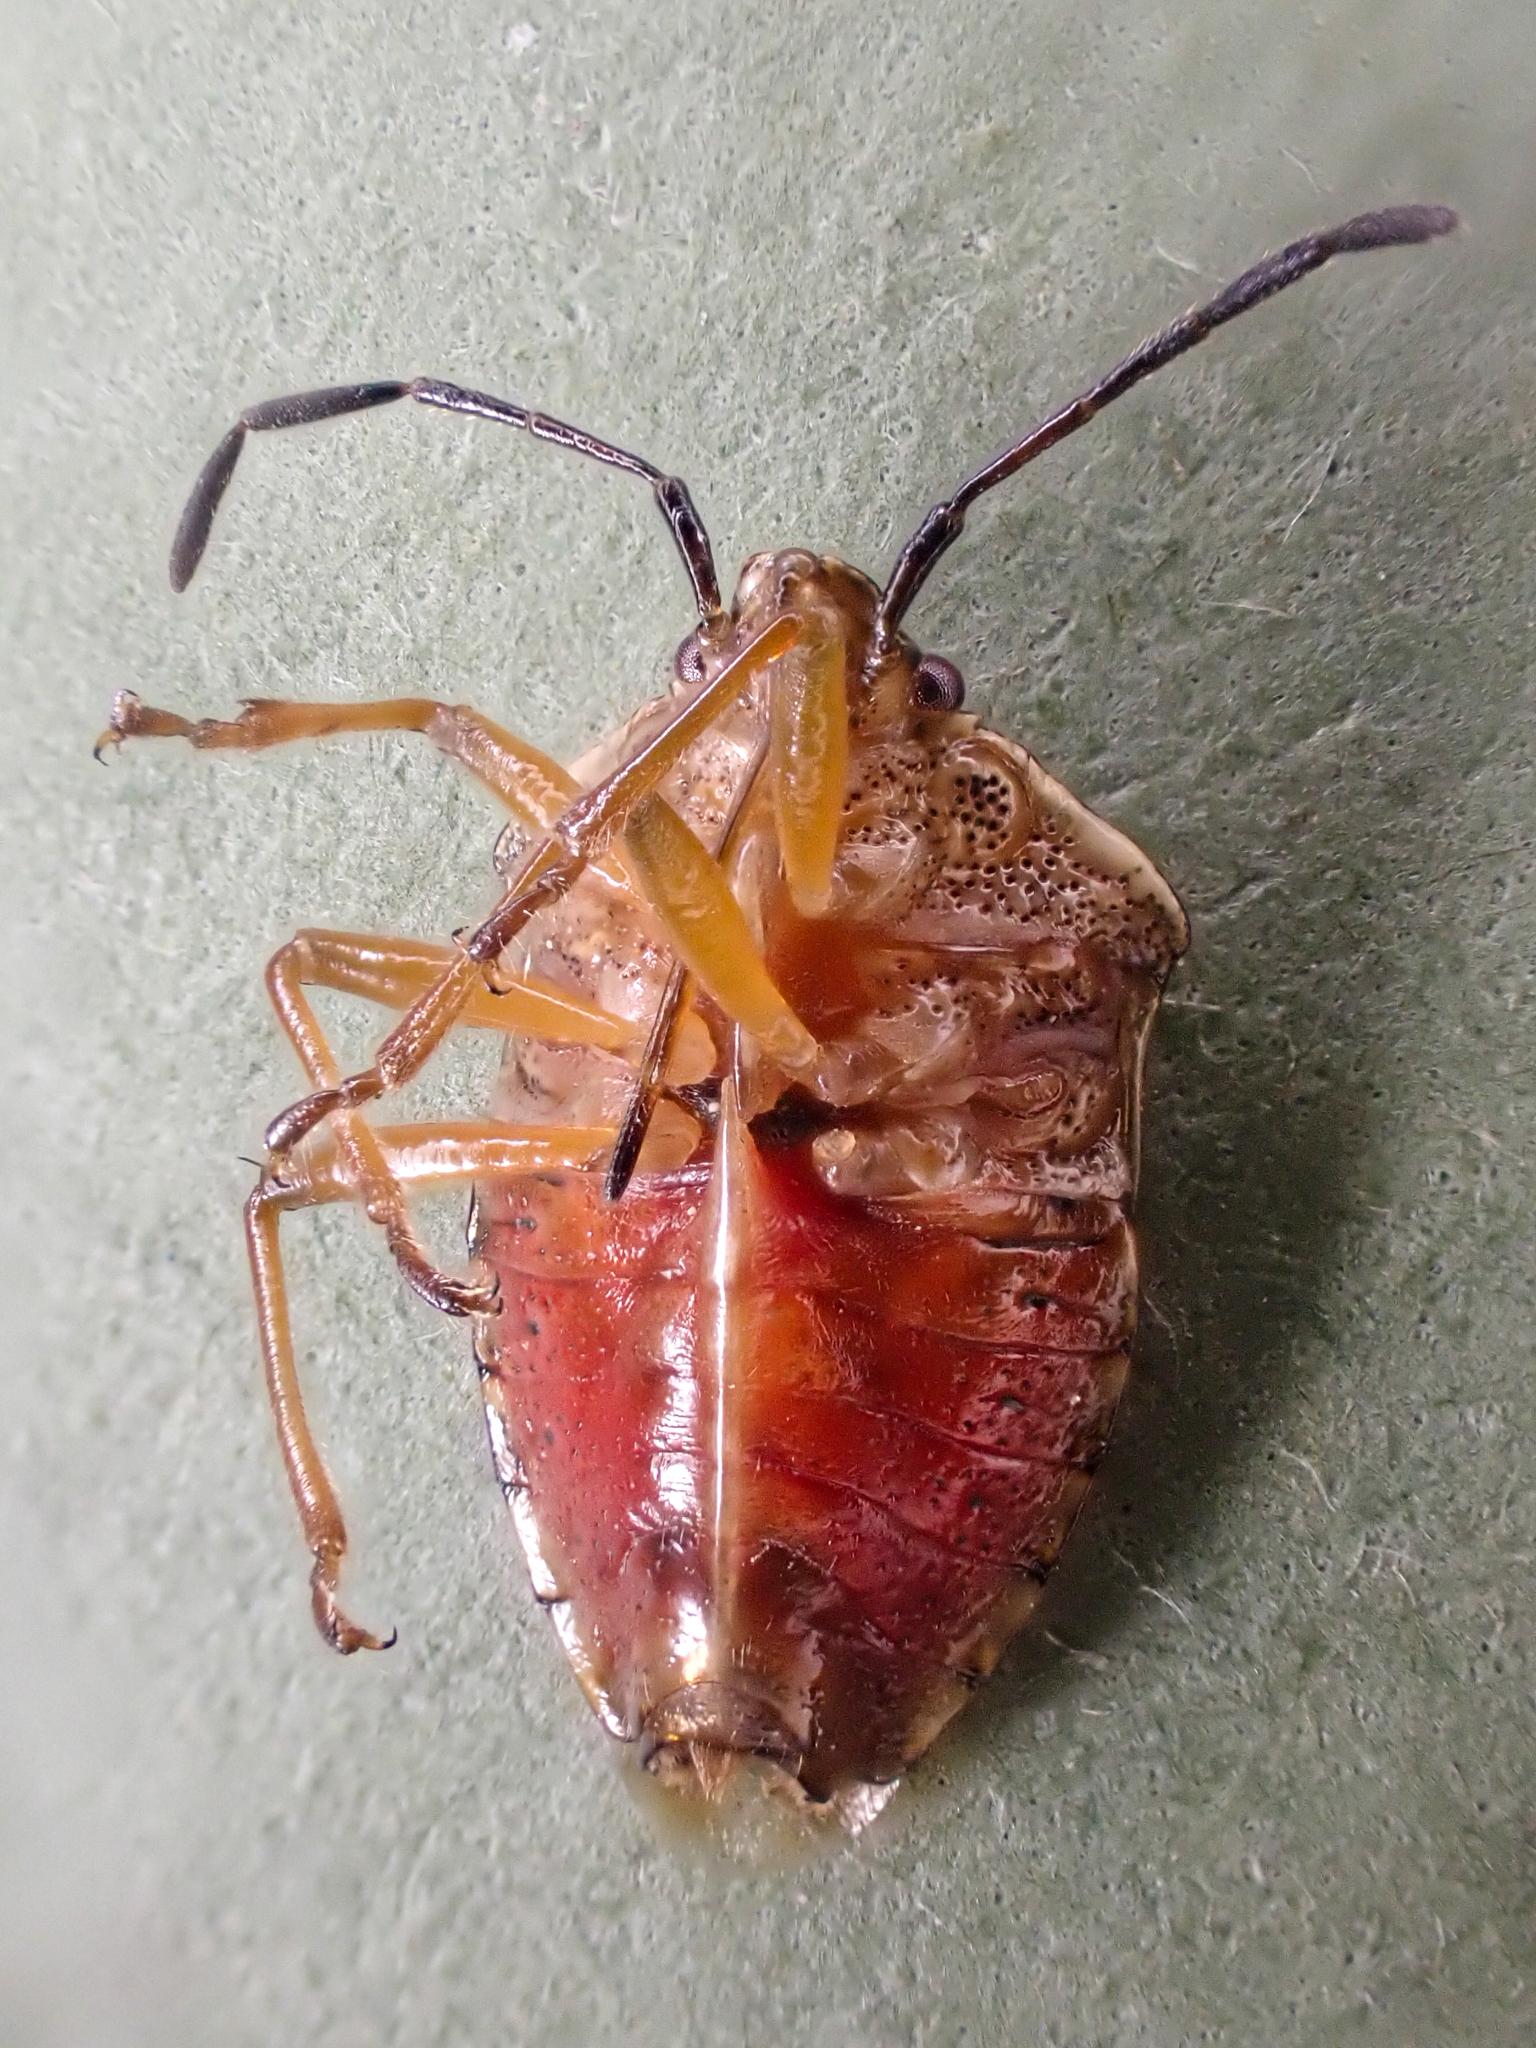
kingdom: Animalia
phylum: Arthropoda
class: Insecta
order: Hemiptera
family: Acanthosomatidae
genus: Elasmucha
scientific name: Elasmucha lateralis
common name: Shield bug
